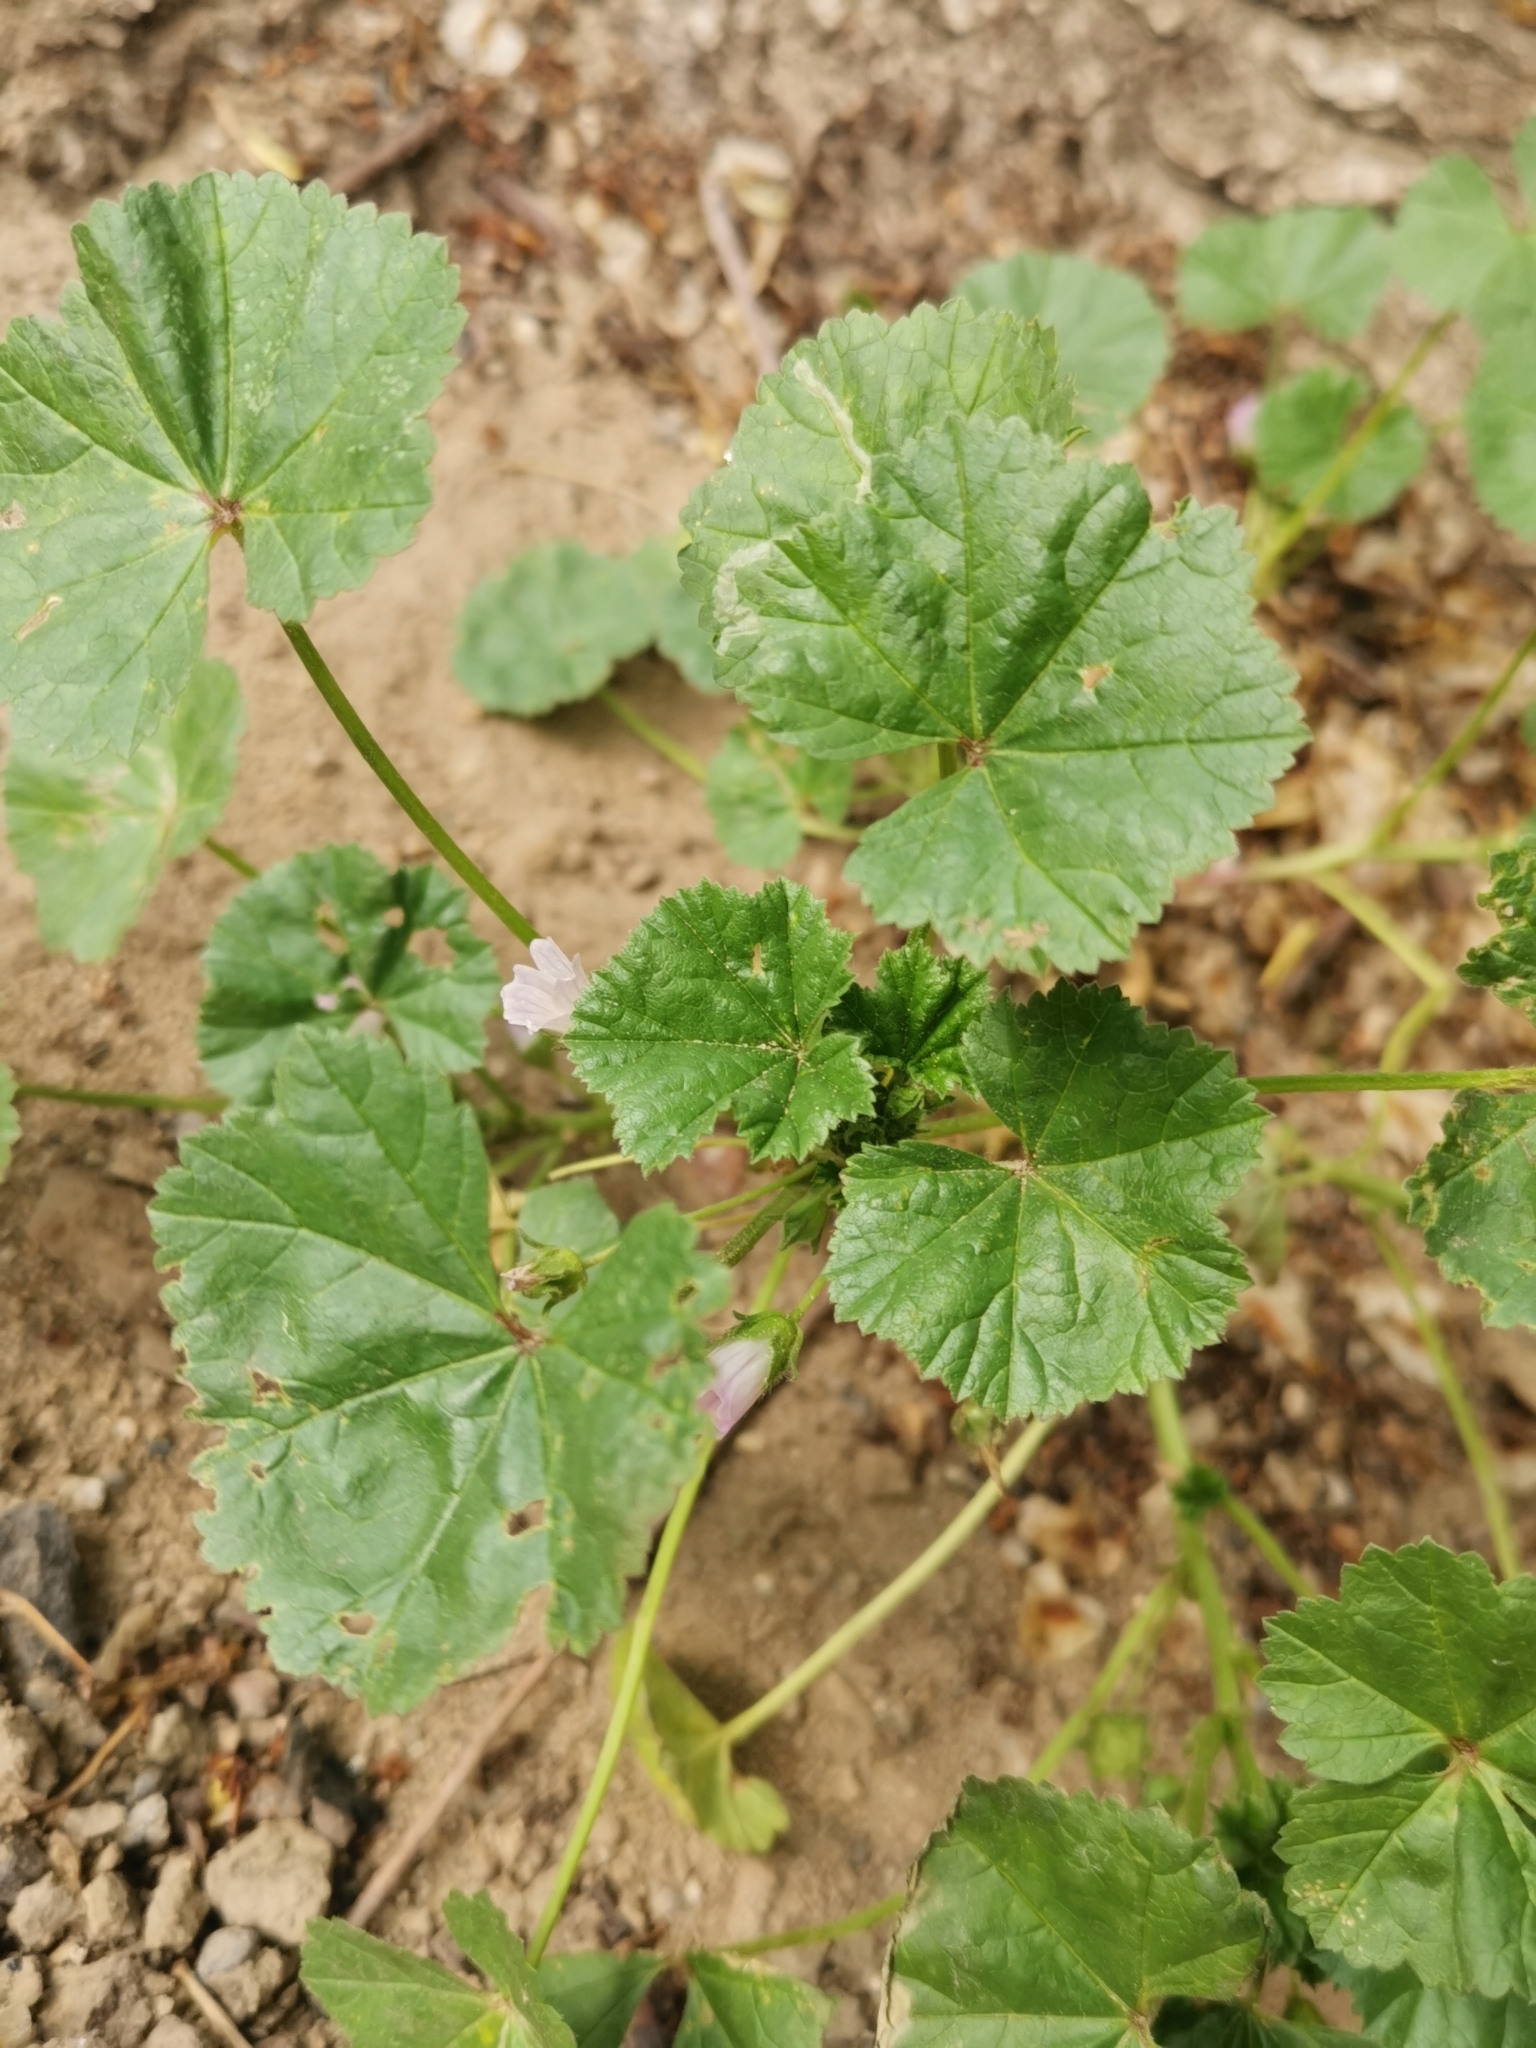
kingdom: Plantae
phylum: Tracheophyta
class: Magnoliopsida
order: Malvales
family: Malvaceae
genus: Malva
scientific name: Malva neglecta
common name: Common mallow
